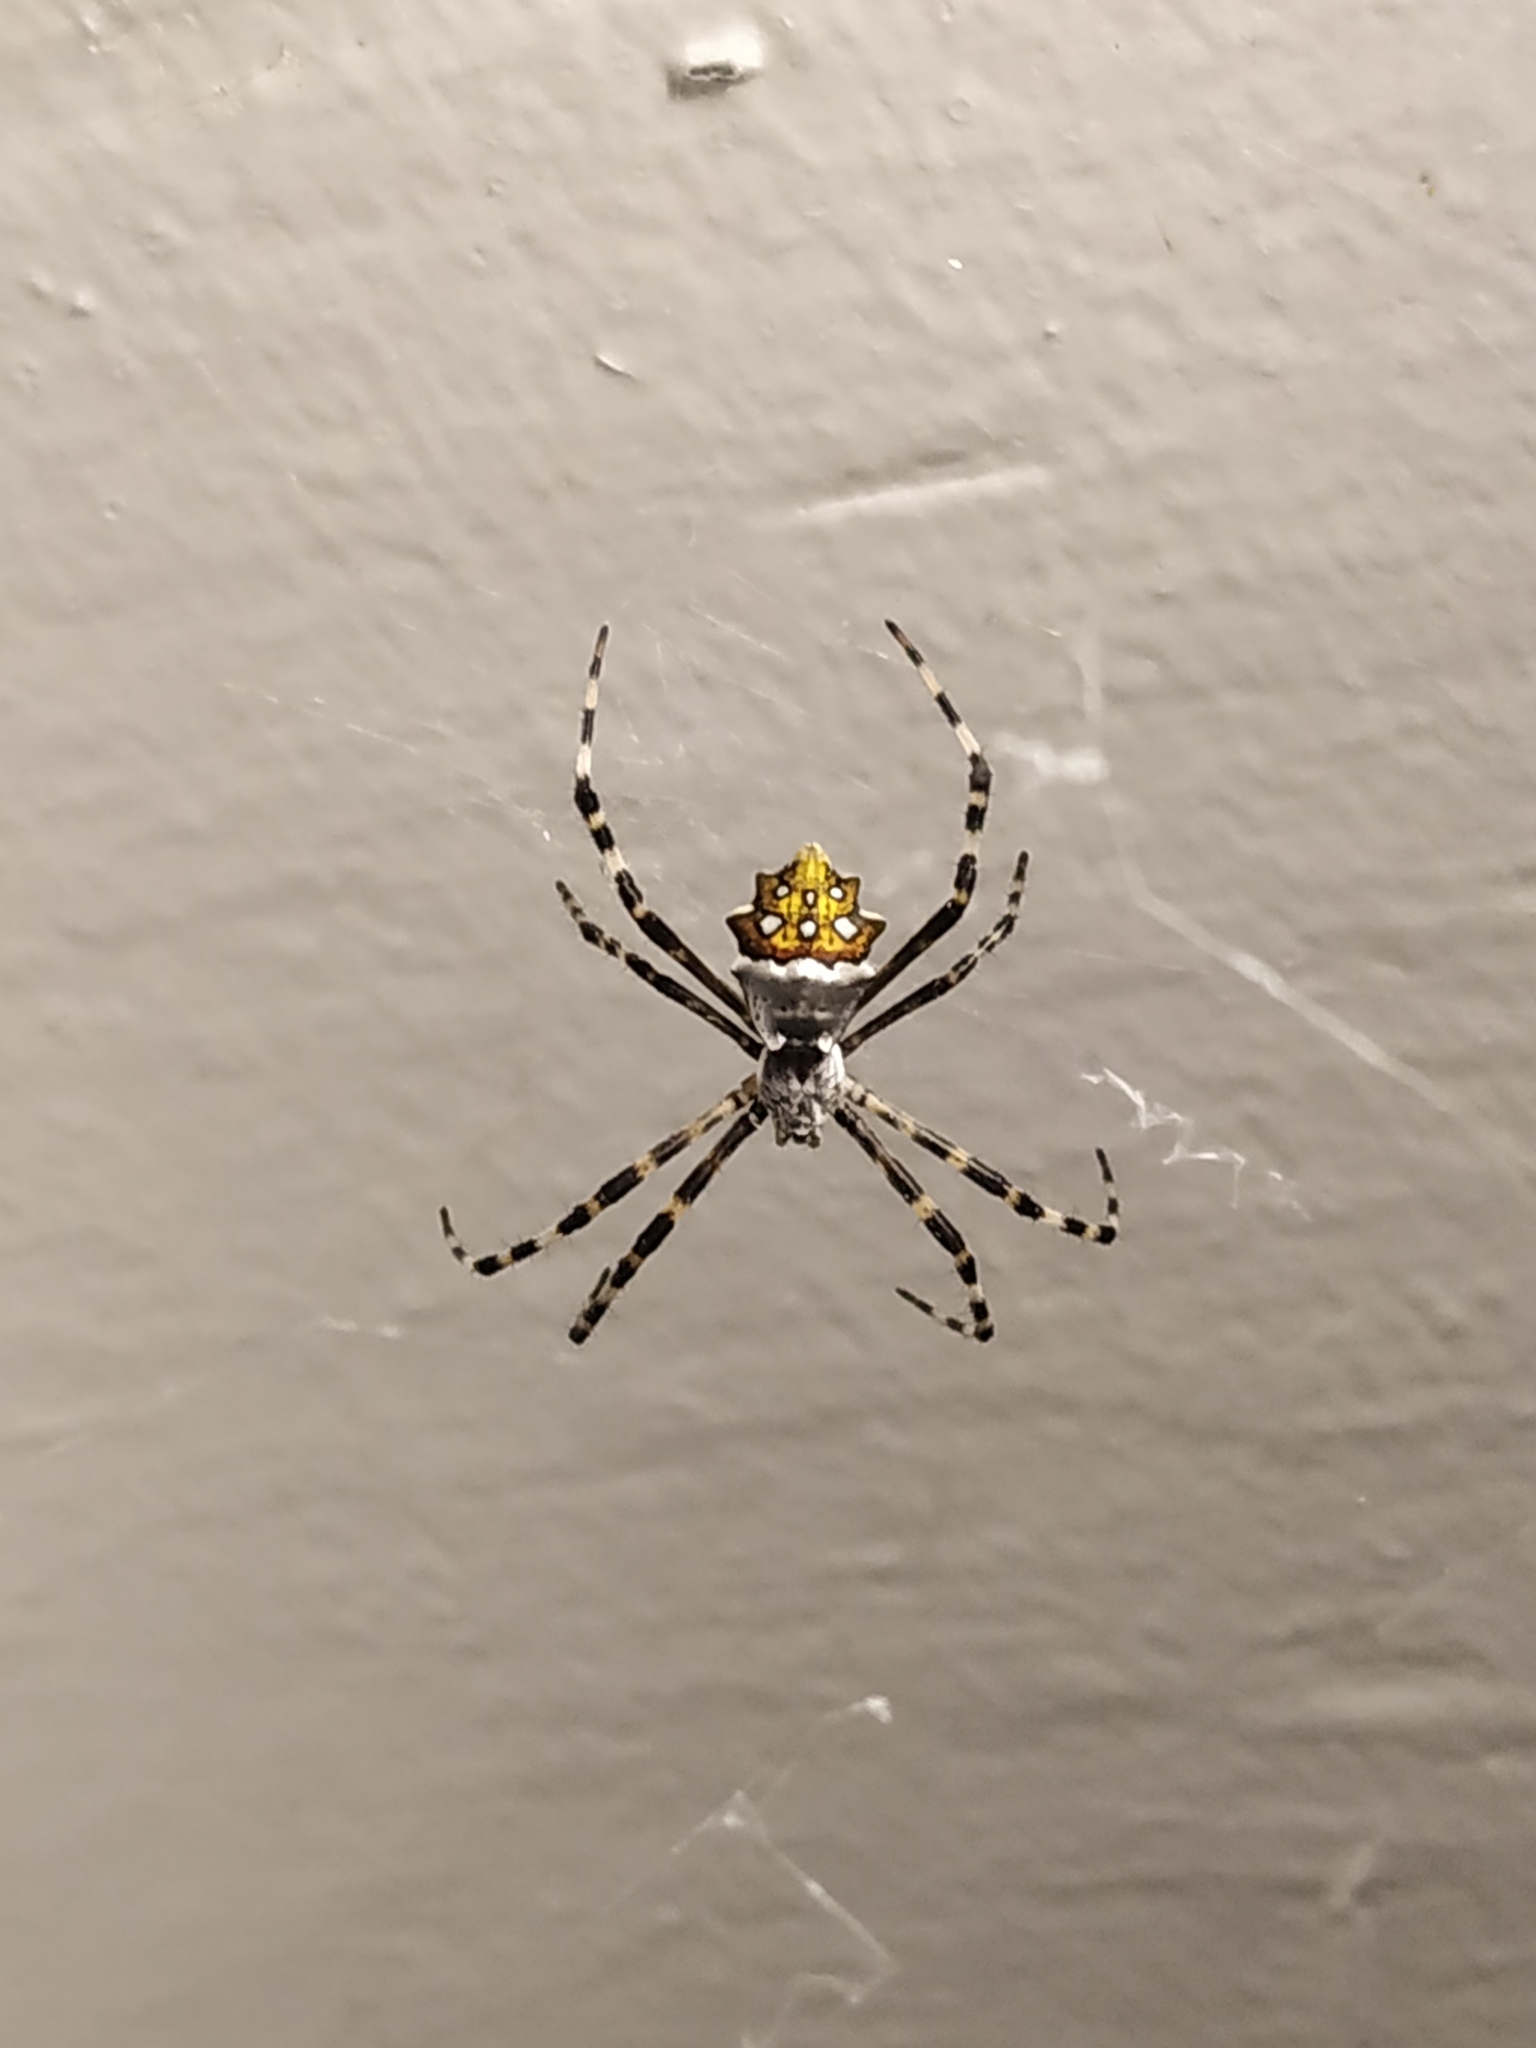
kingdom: Animalia
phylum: Arthropoda
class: Arachnida
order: Araneae
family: Araneidae
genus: Argiope
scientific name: Argiope argentata
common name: Orb weavers
